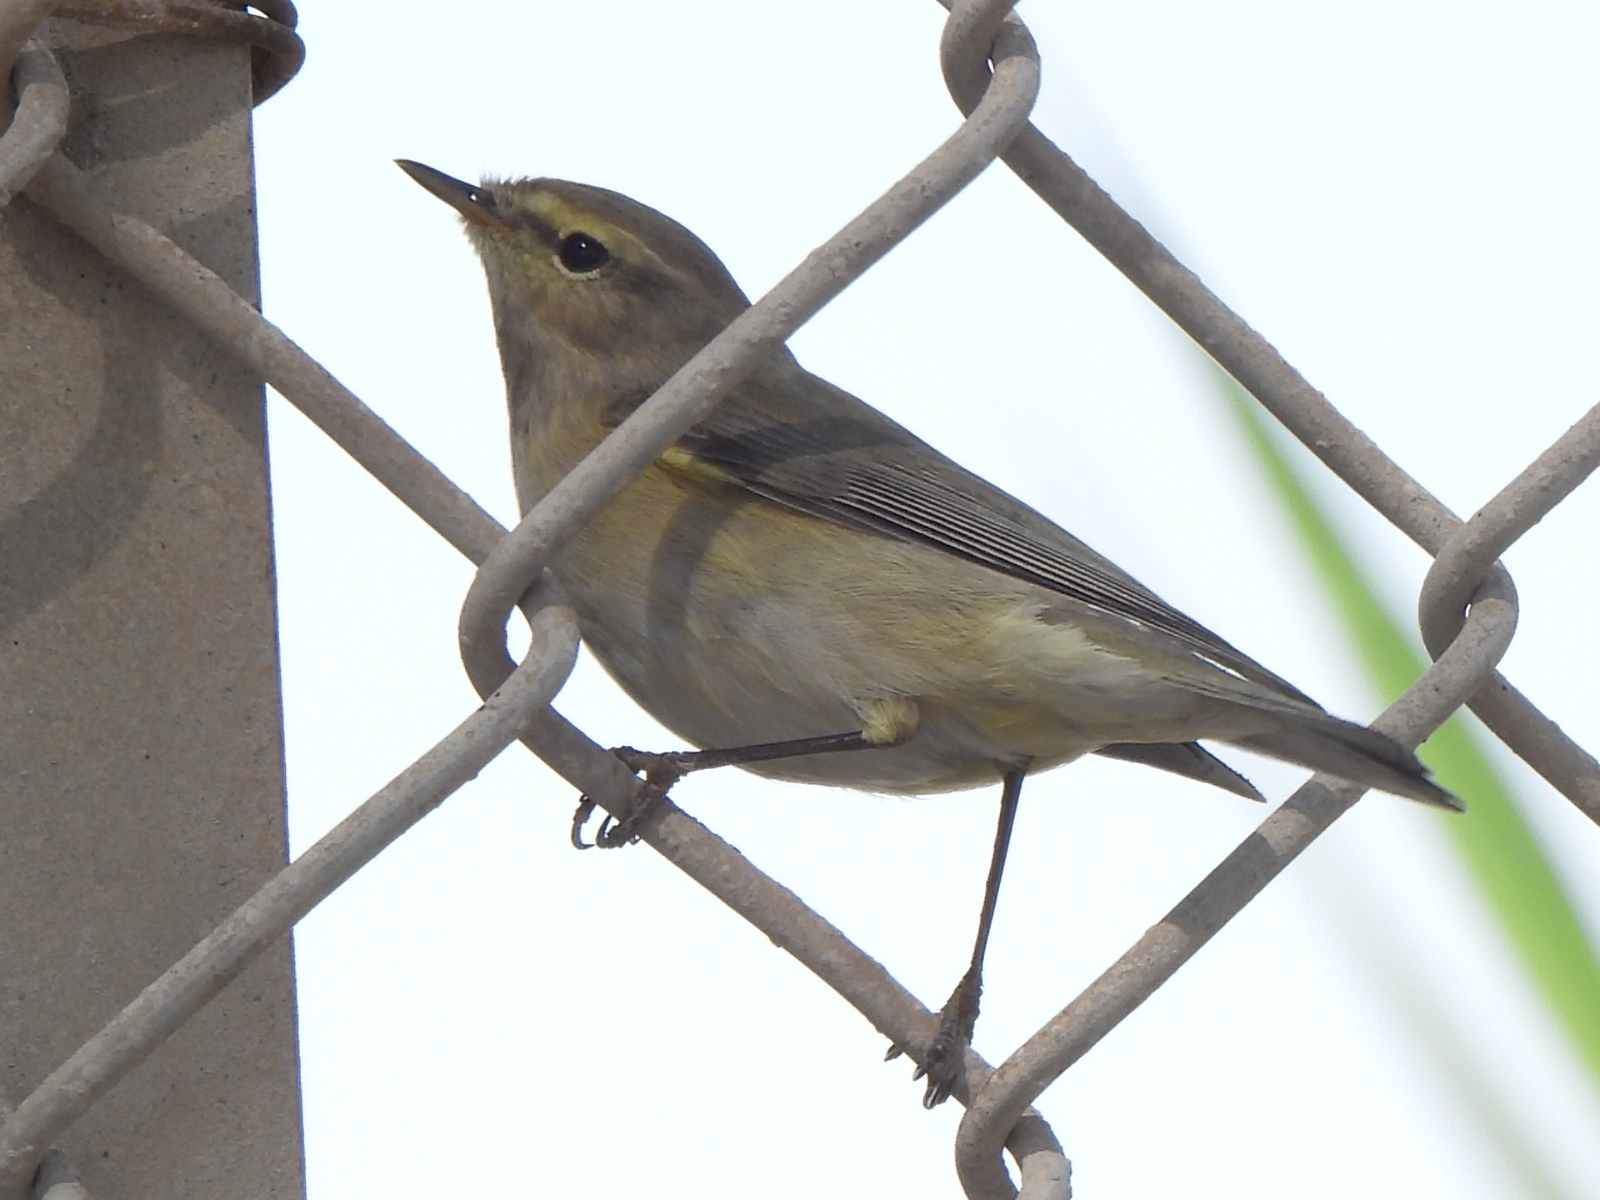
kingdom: Animalia
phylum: Chordata
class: Aves
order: Passeriformes
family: Phylloscopidae
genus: Phylloscopus
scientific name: Phylloscopus collybita
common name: Common chiffchaff
